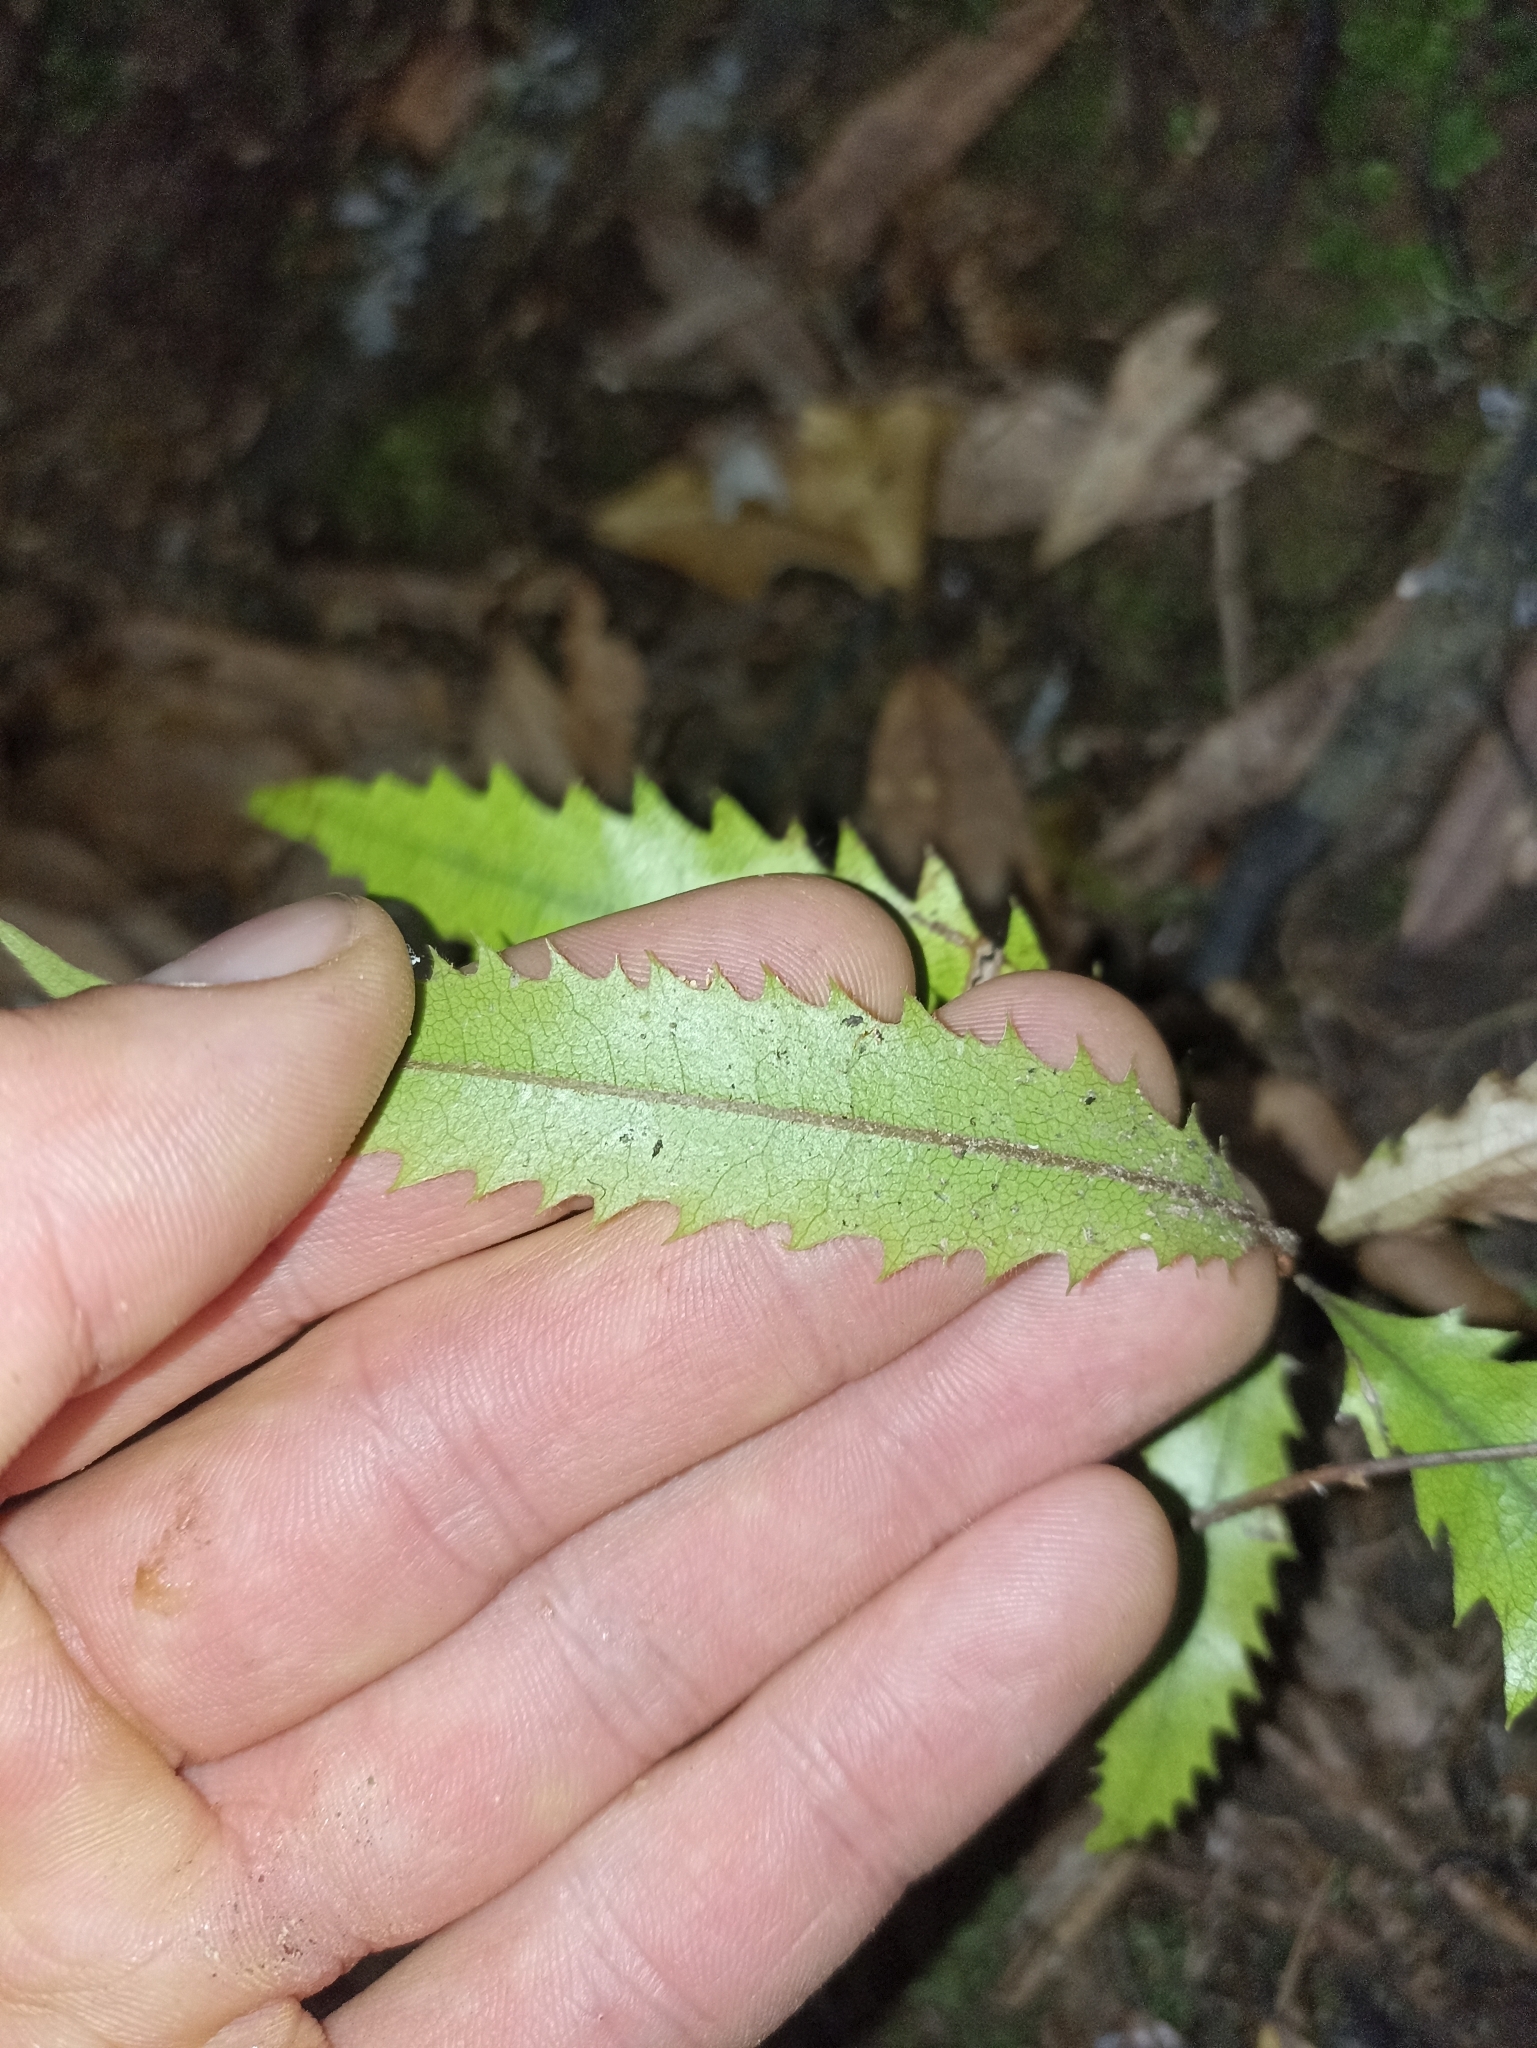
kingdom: Plantae
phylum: Tracheophyta
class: Magnoliopsida
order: Proteales
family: Proteaceae
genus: Knightia
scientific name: Knightia excelsa
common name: New zealand-honeysuckle
